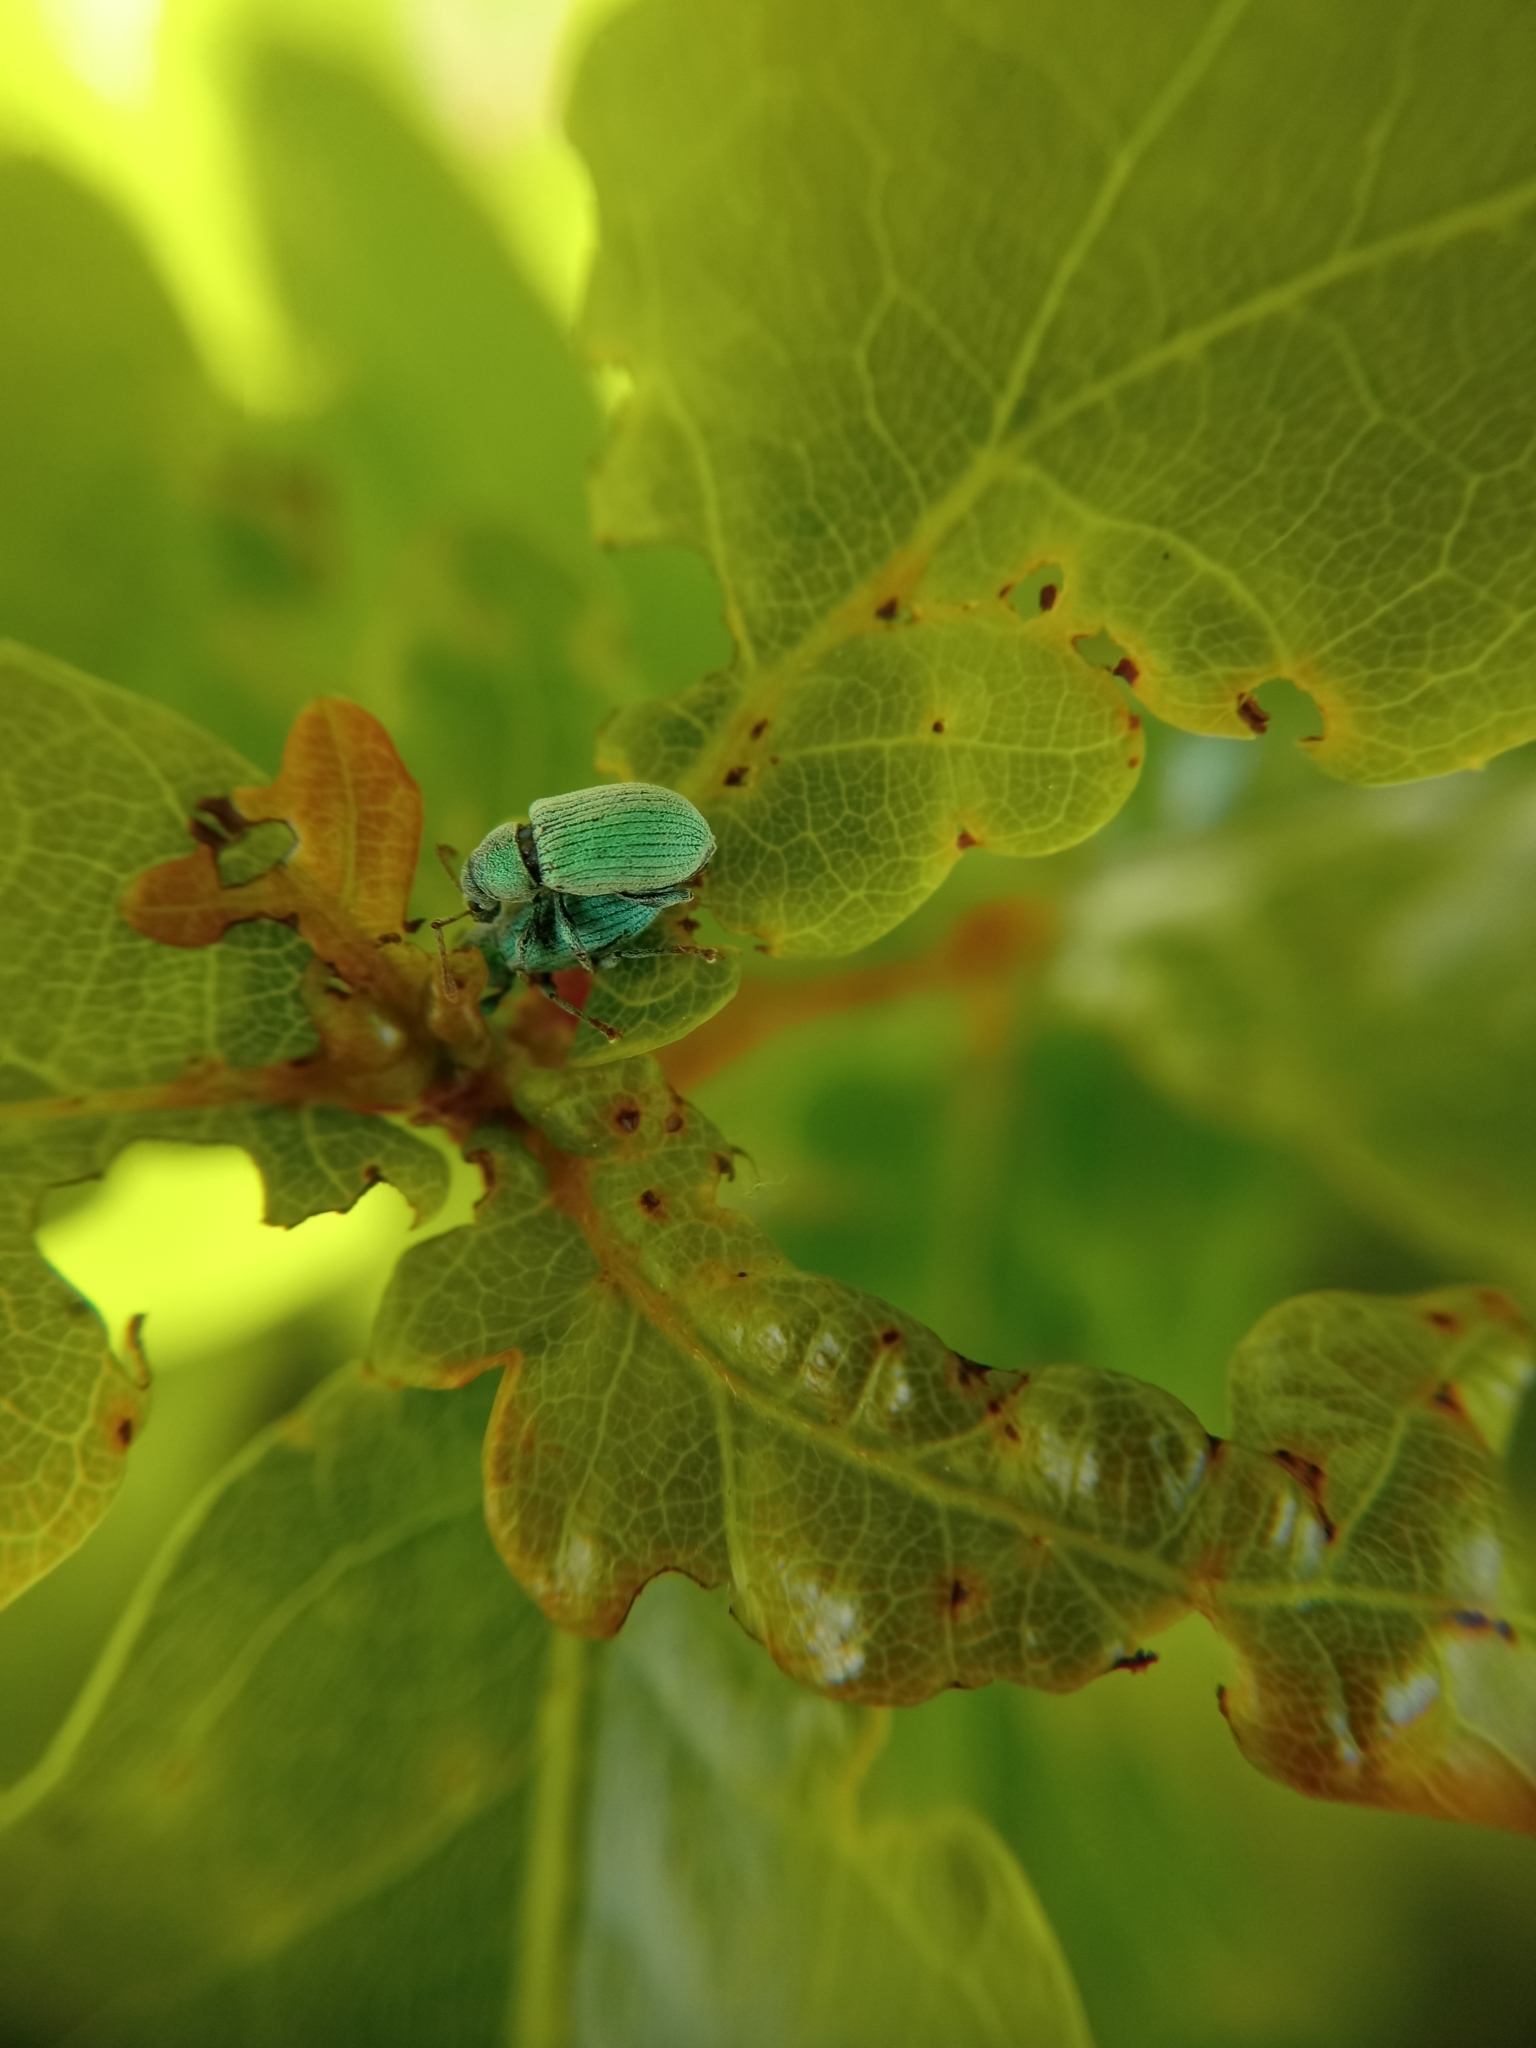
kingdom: Animalia
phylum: Arthropoda
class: Insecta
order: Coleoptera
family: Curculionidae
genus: Phyllobius
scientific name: Phyllobius roboretanus
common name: Small green nettle weevil
